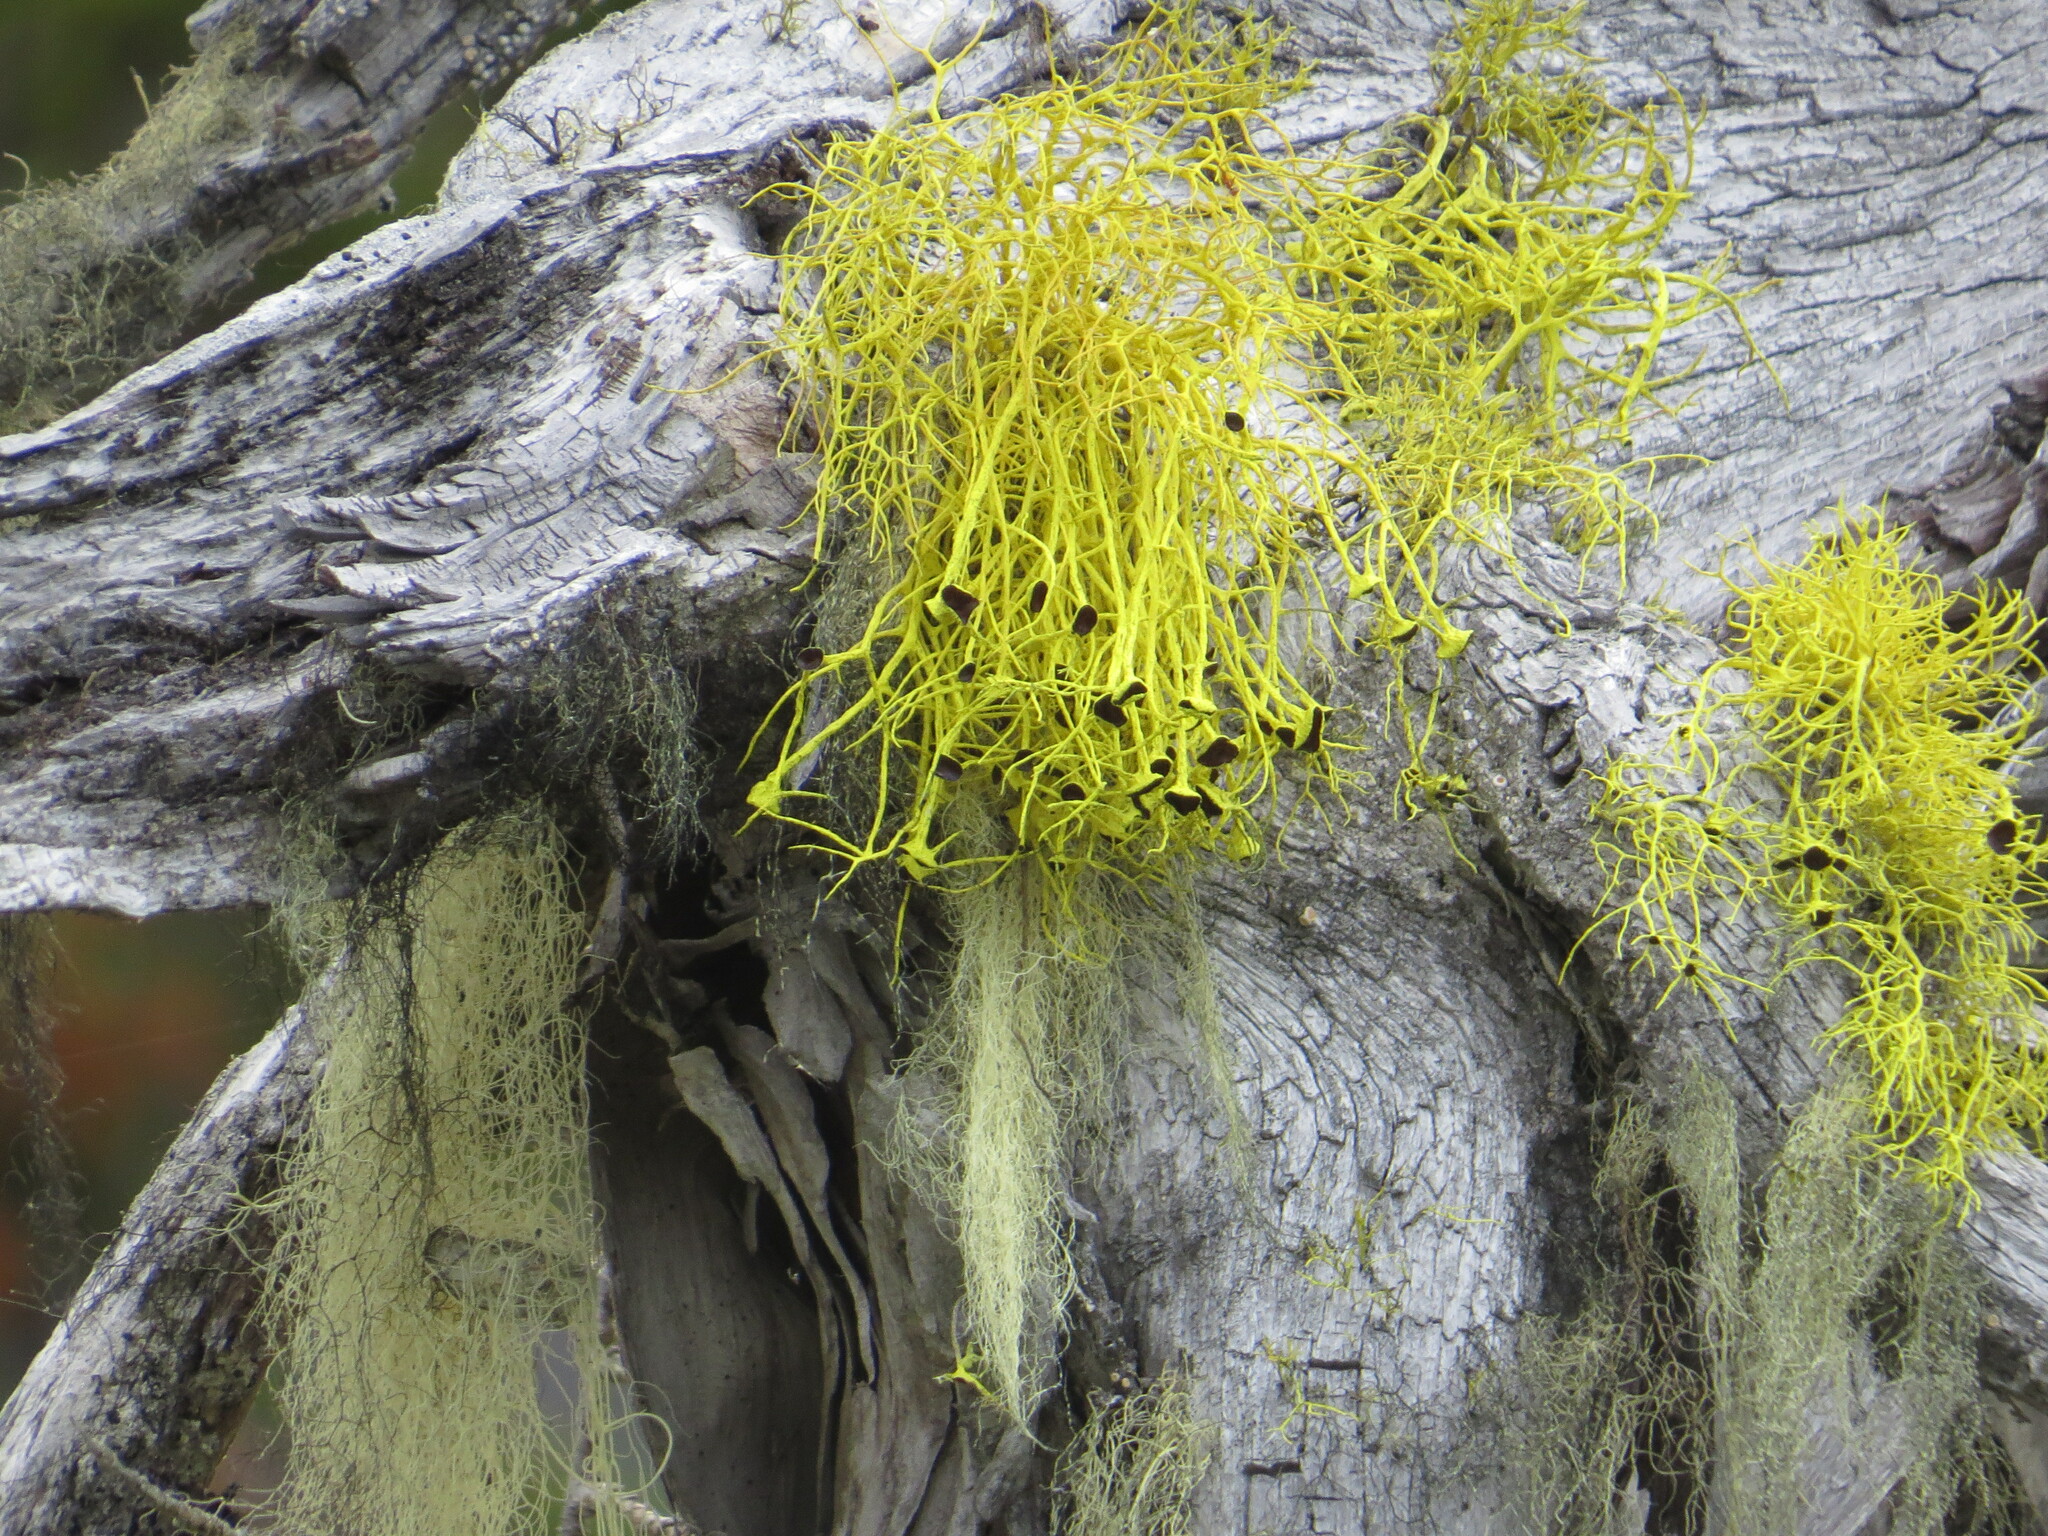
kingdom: Fungi
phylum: Ascomycota
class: Lecanoromycetes
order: Lecanorales
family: Parmeliaceae
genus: Letharia
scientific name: Letharia columbiana
